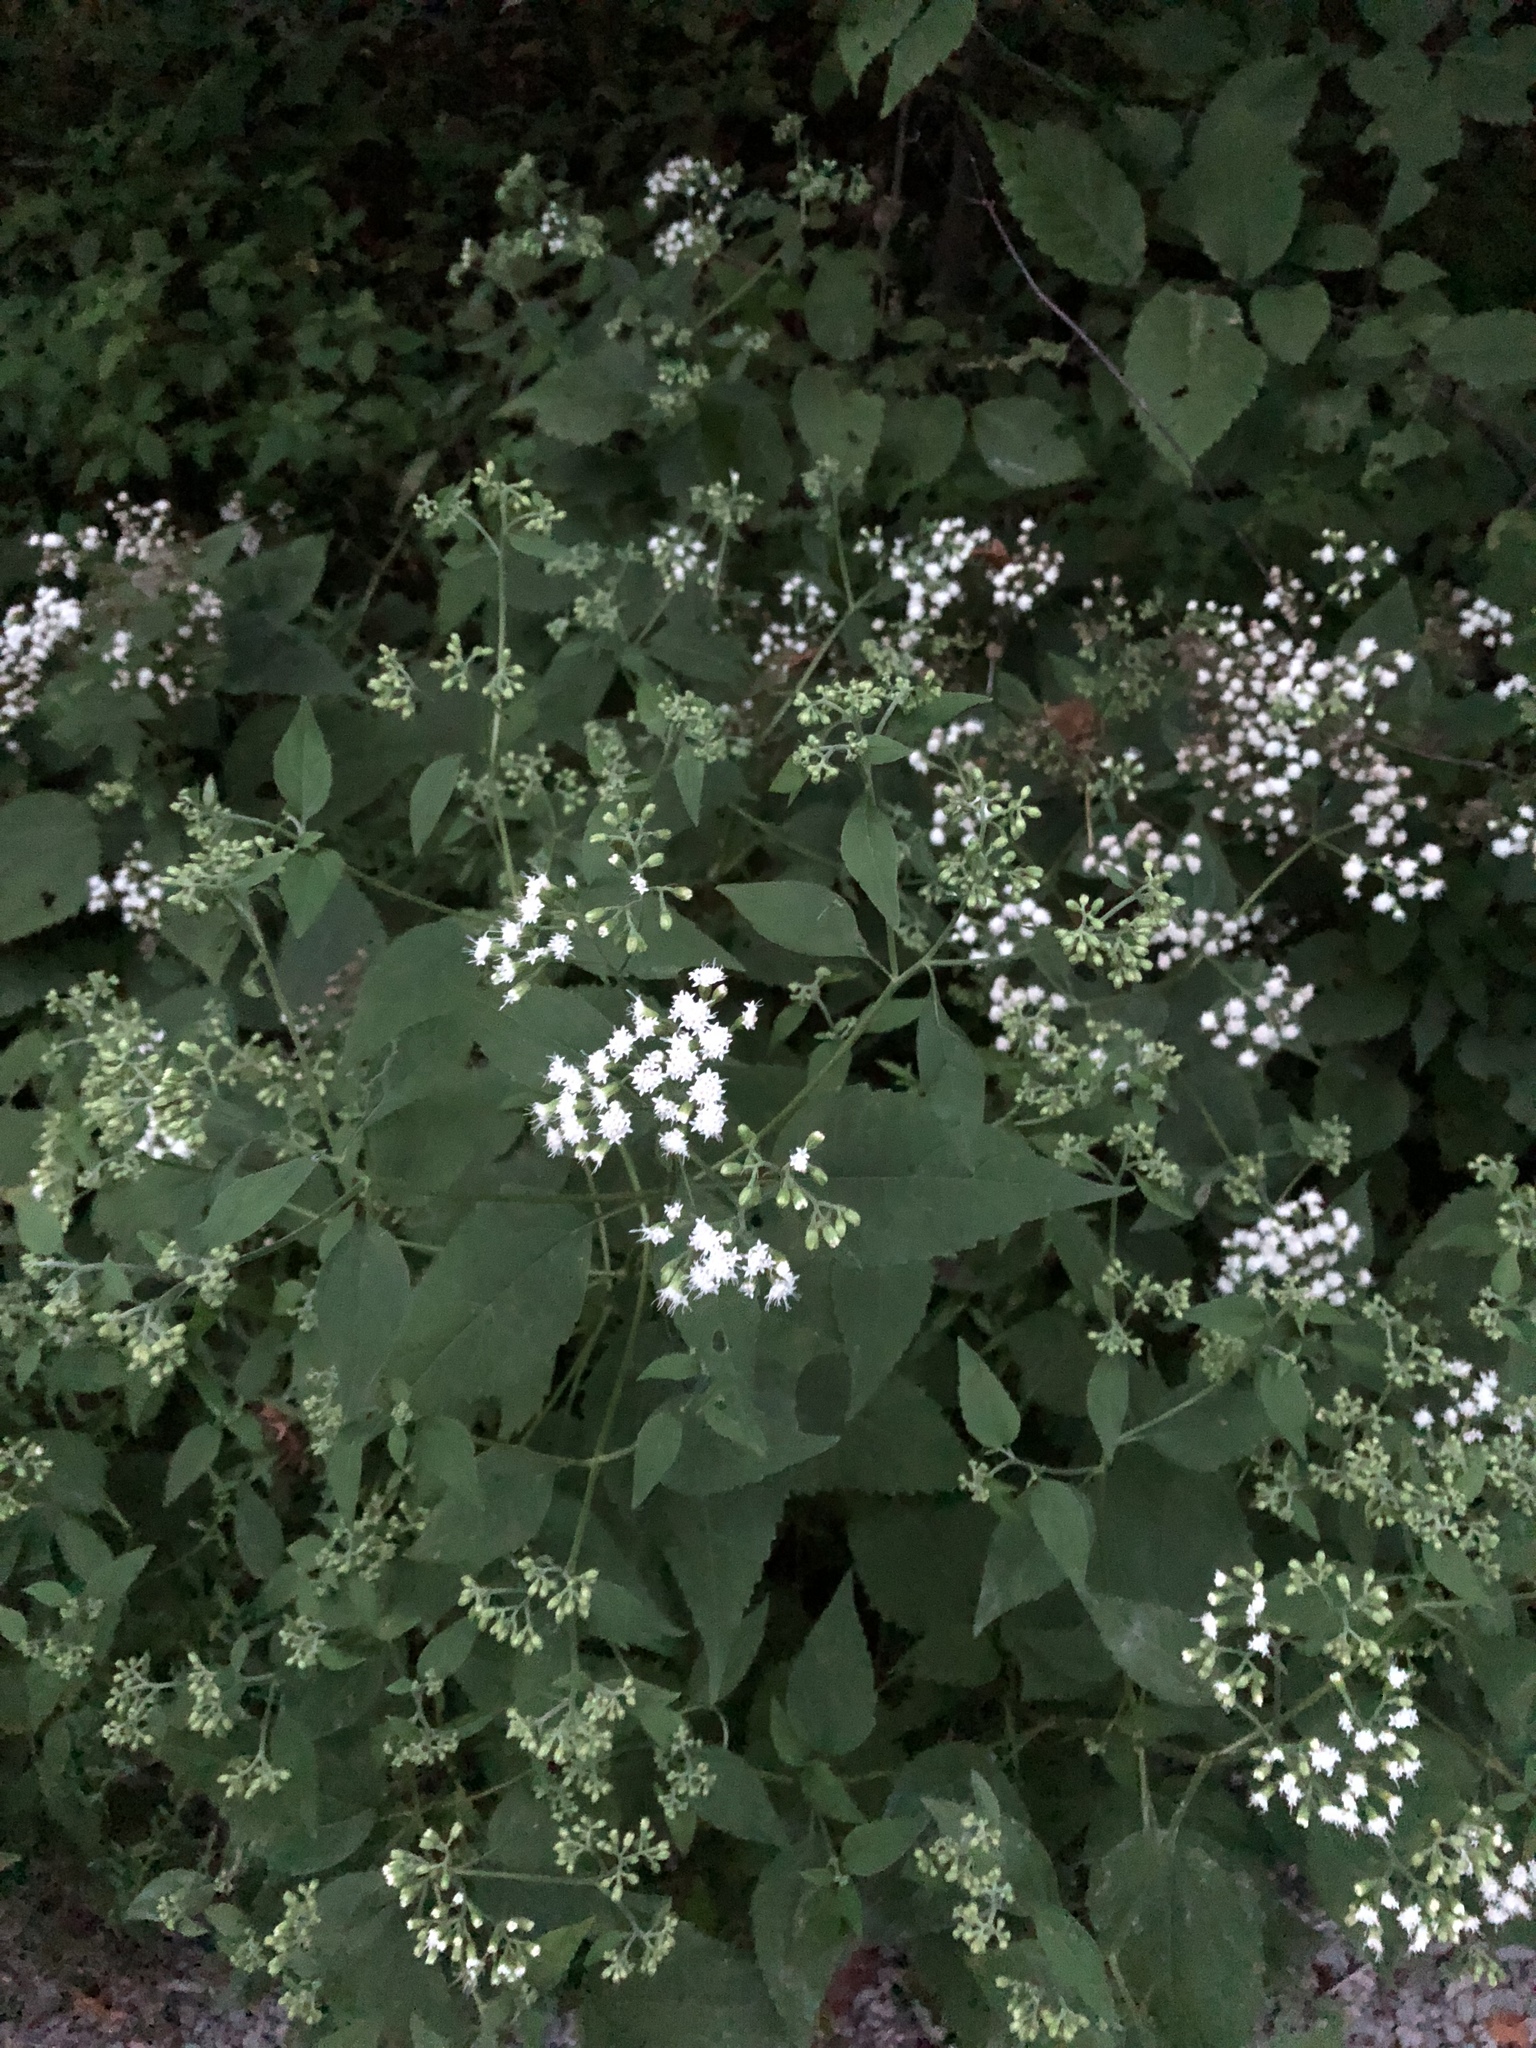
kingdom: Plantae
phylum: Tracheophyta
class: Magnoliopsida
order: Asterales
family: Asteraceae
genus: Ageratina
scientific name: Ageratina altissima
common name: White snakeroot
